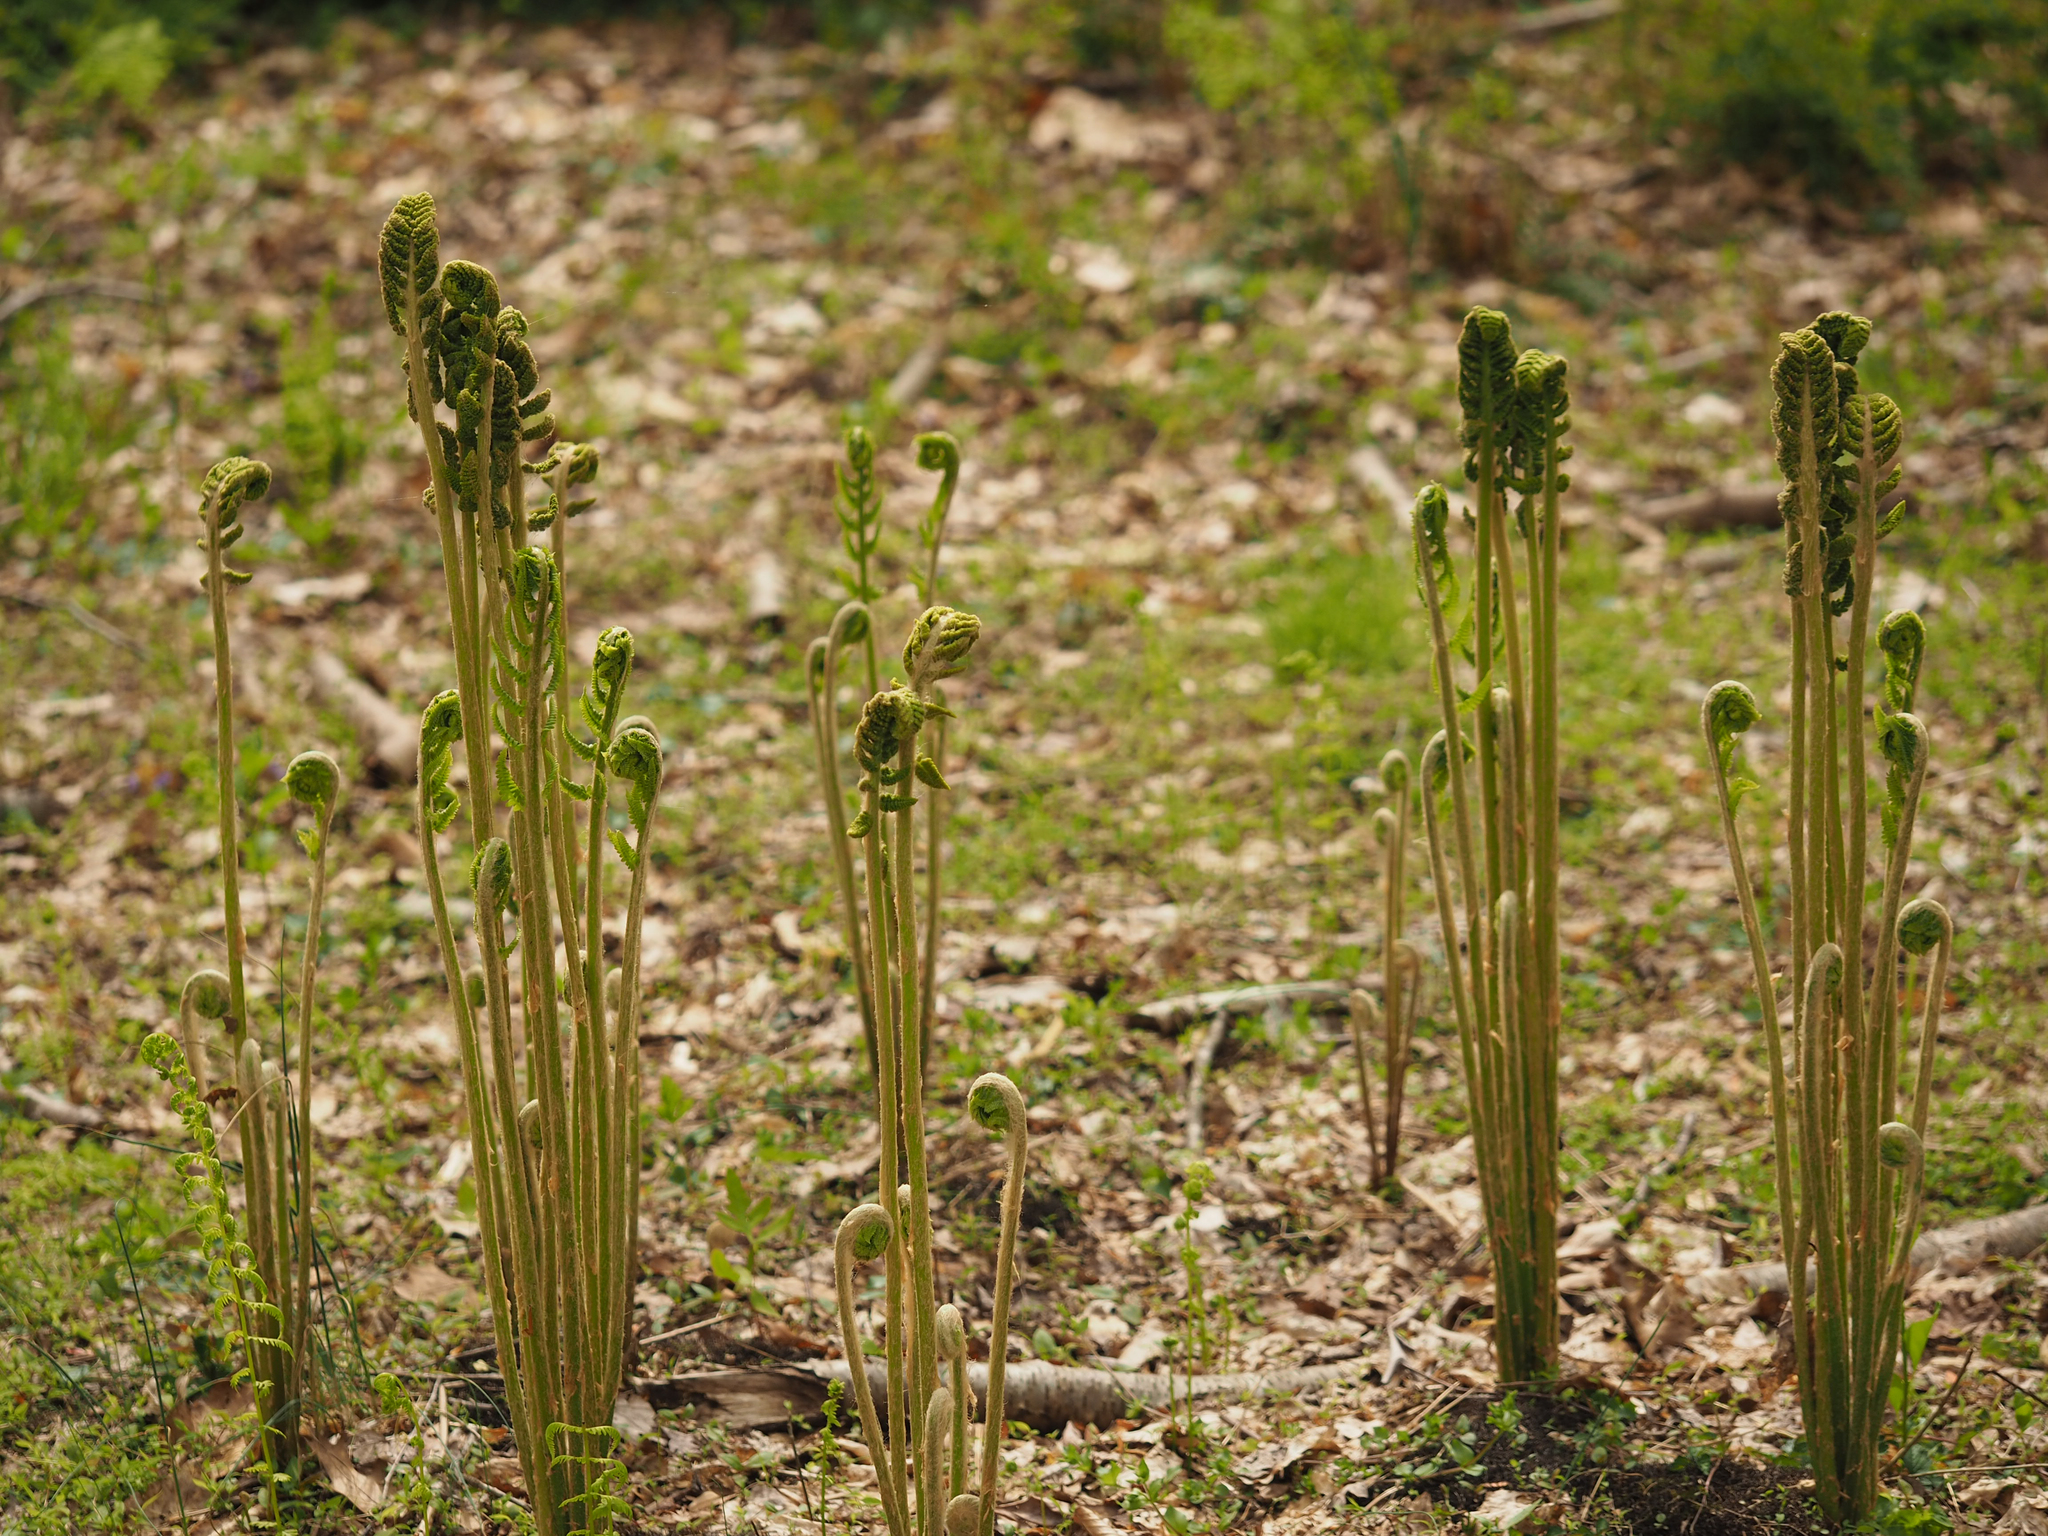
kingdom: Plantae
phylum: Tracheophyta
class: Polypodiopsida
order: Osmundales
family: Osmundaceae
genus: Osmundastrum
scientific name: Osmundastrum cinnamomeum
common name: Cinnamon fern
